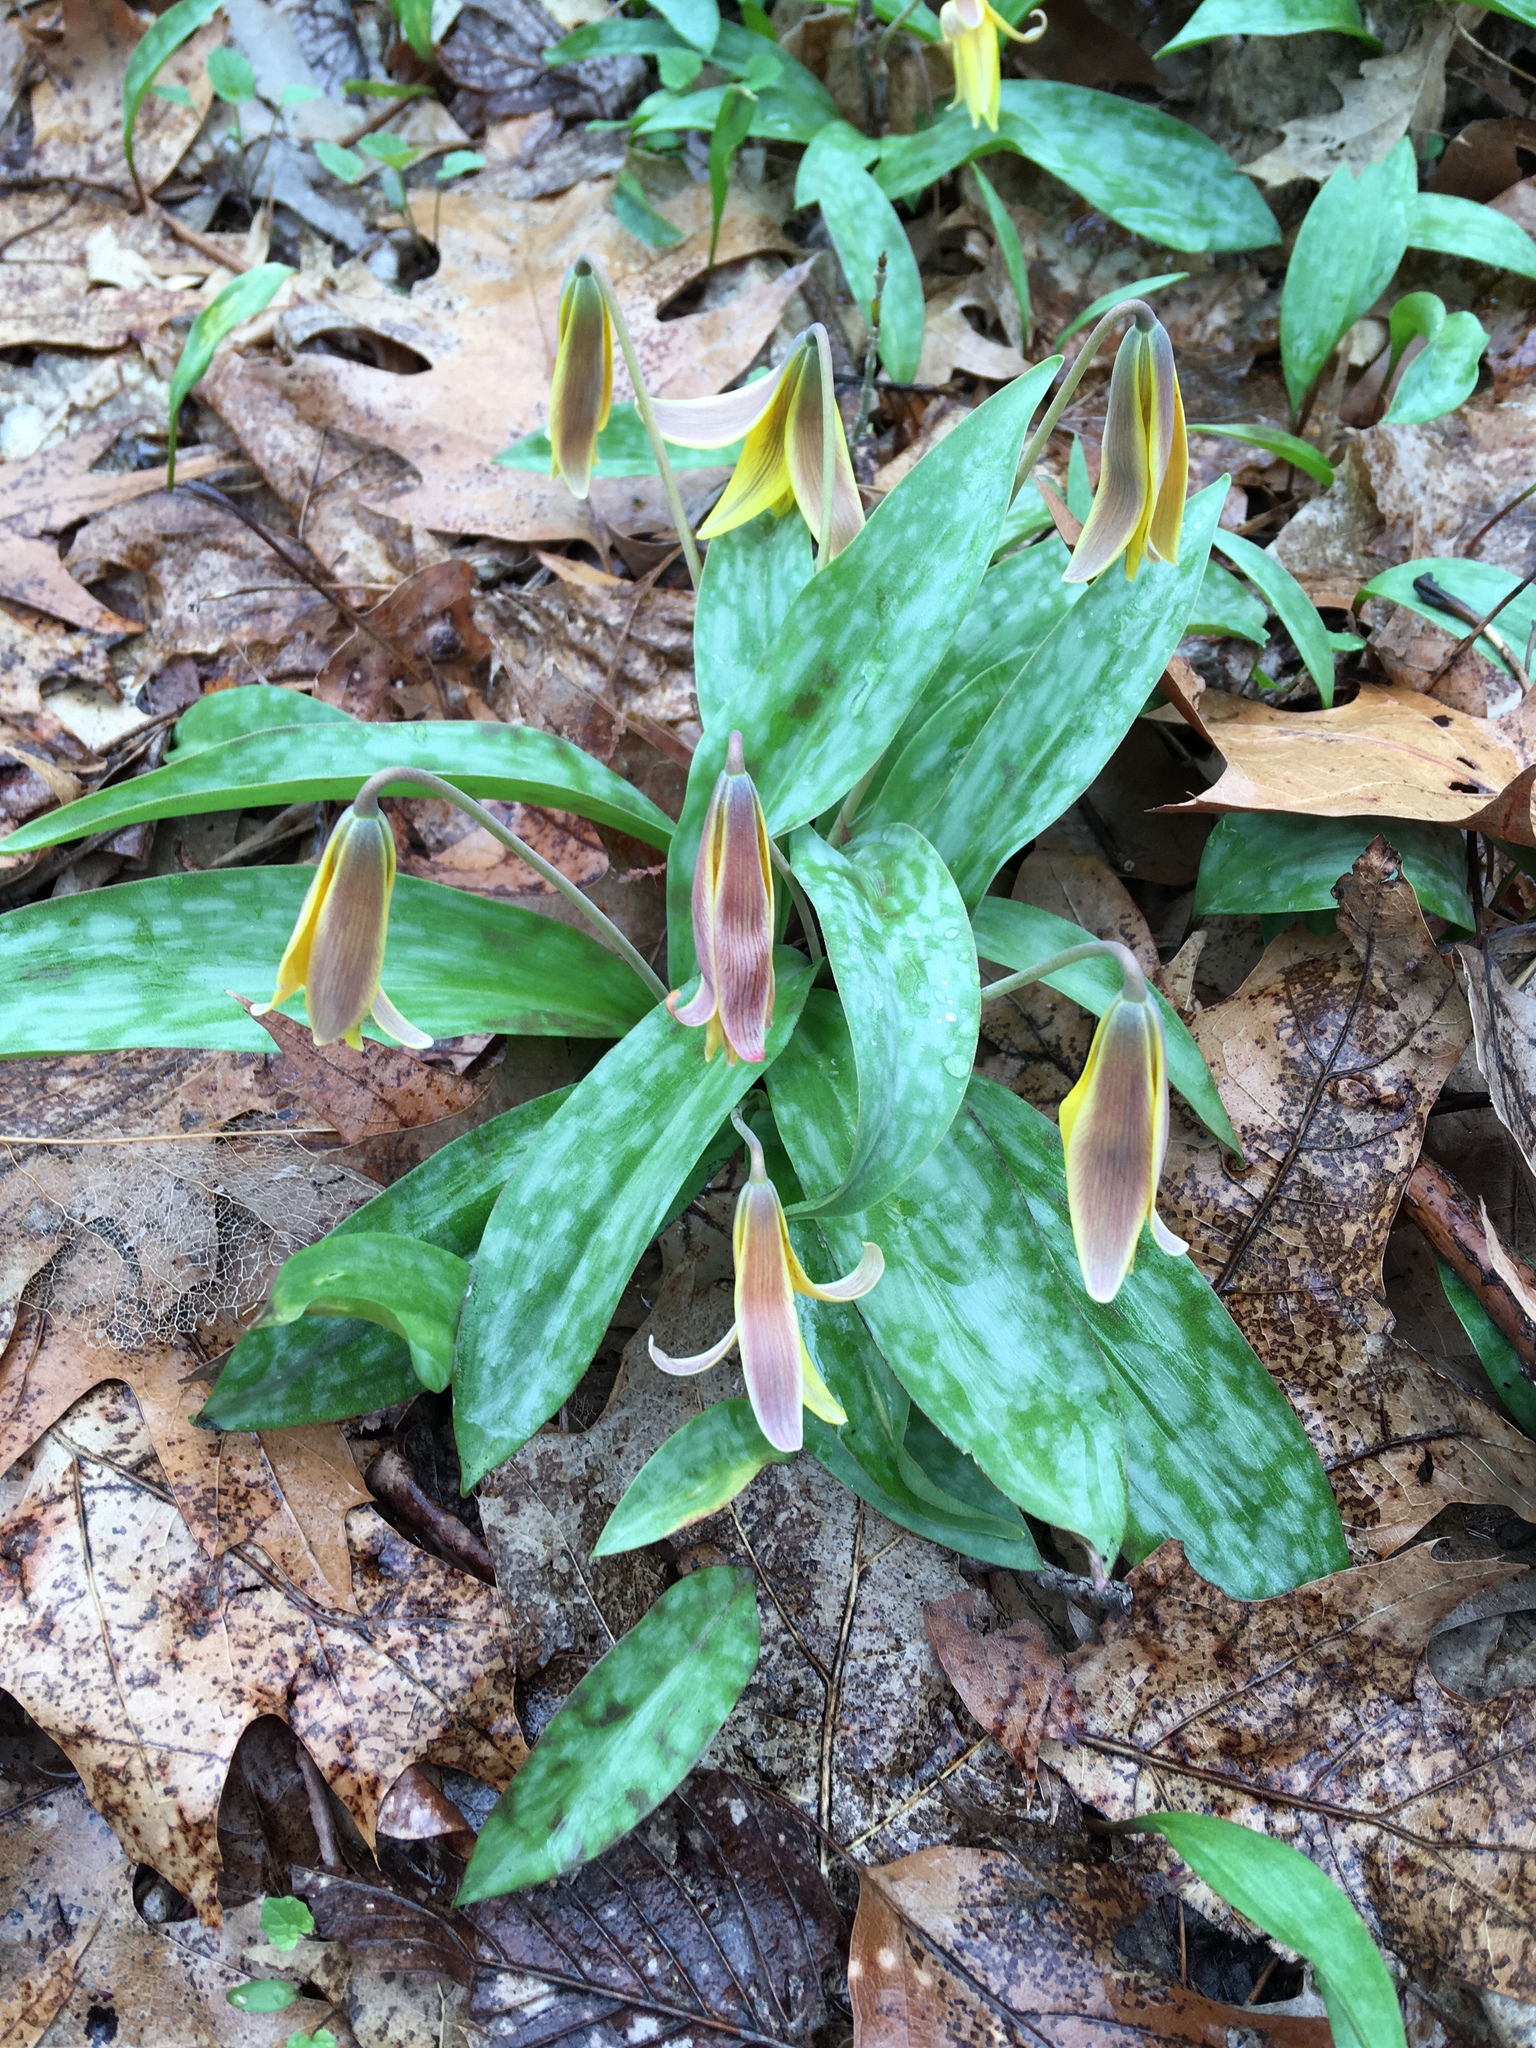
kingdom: Plantae
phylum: Tracheophyta
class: Liliopsida
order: Liliales
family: Liliaceae
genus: Erythronium
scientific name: Erythronium americanum
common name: Yellow adder's-tongue
